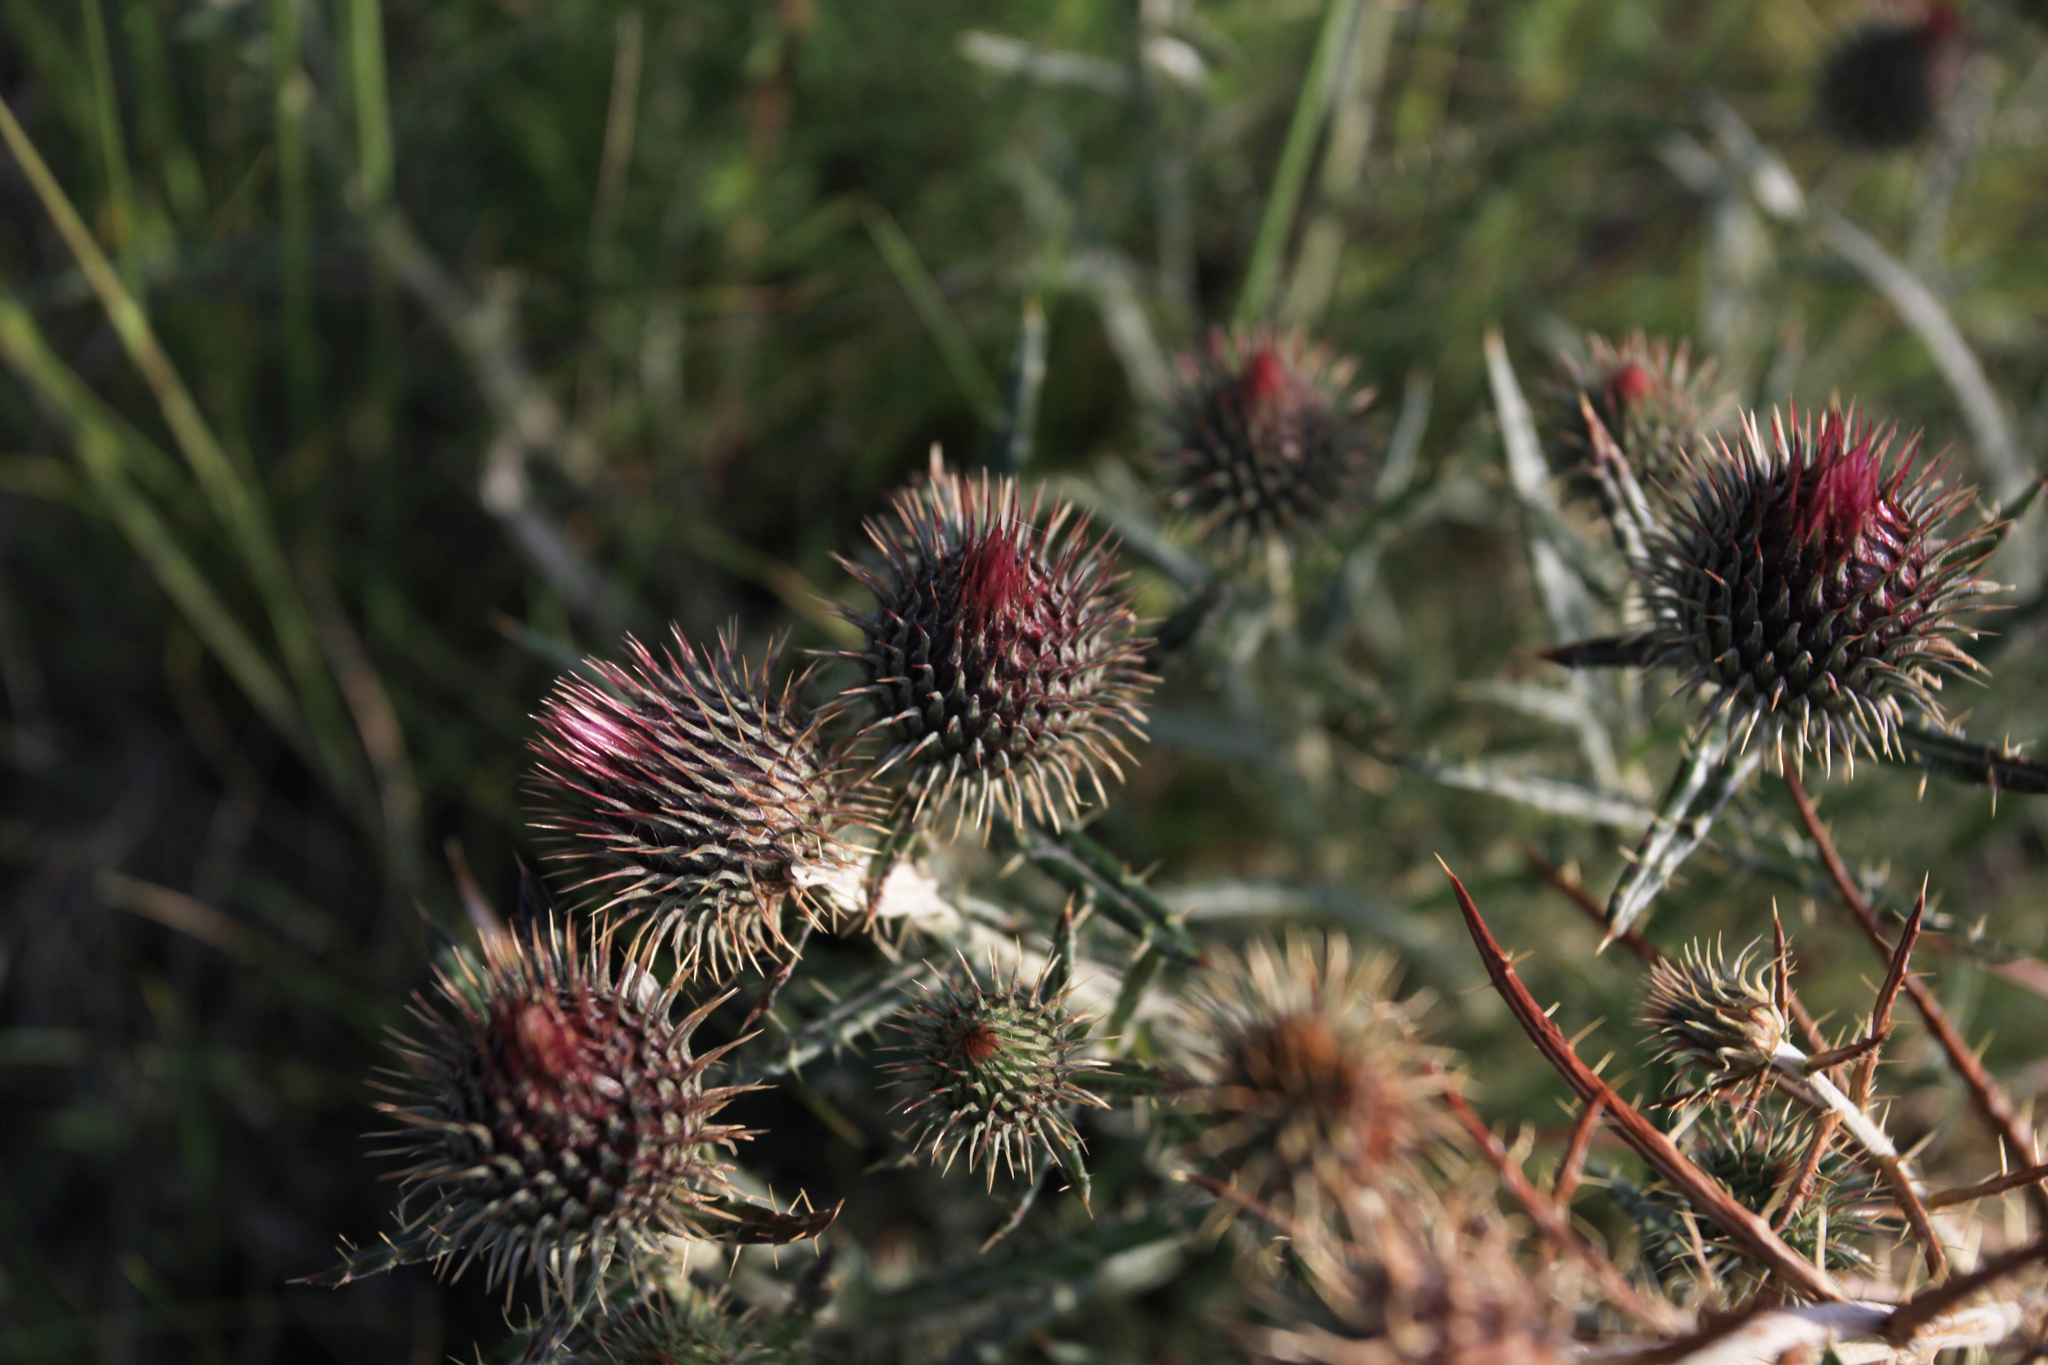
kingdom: Plantae
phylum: Tracheophyta
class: Magnoliopsida
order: Asterales
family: Asteraceae
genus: Ancathia
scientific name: Ancathia igniaria
